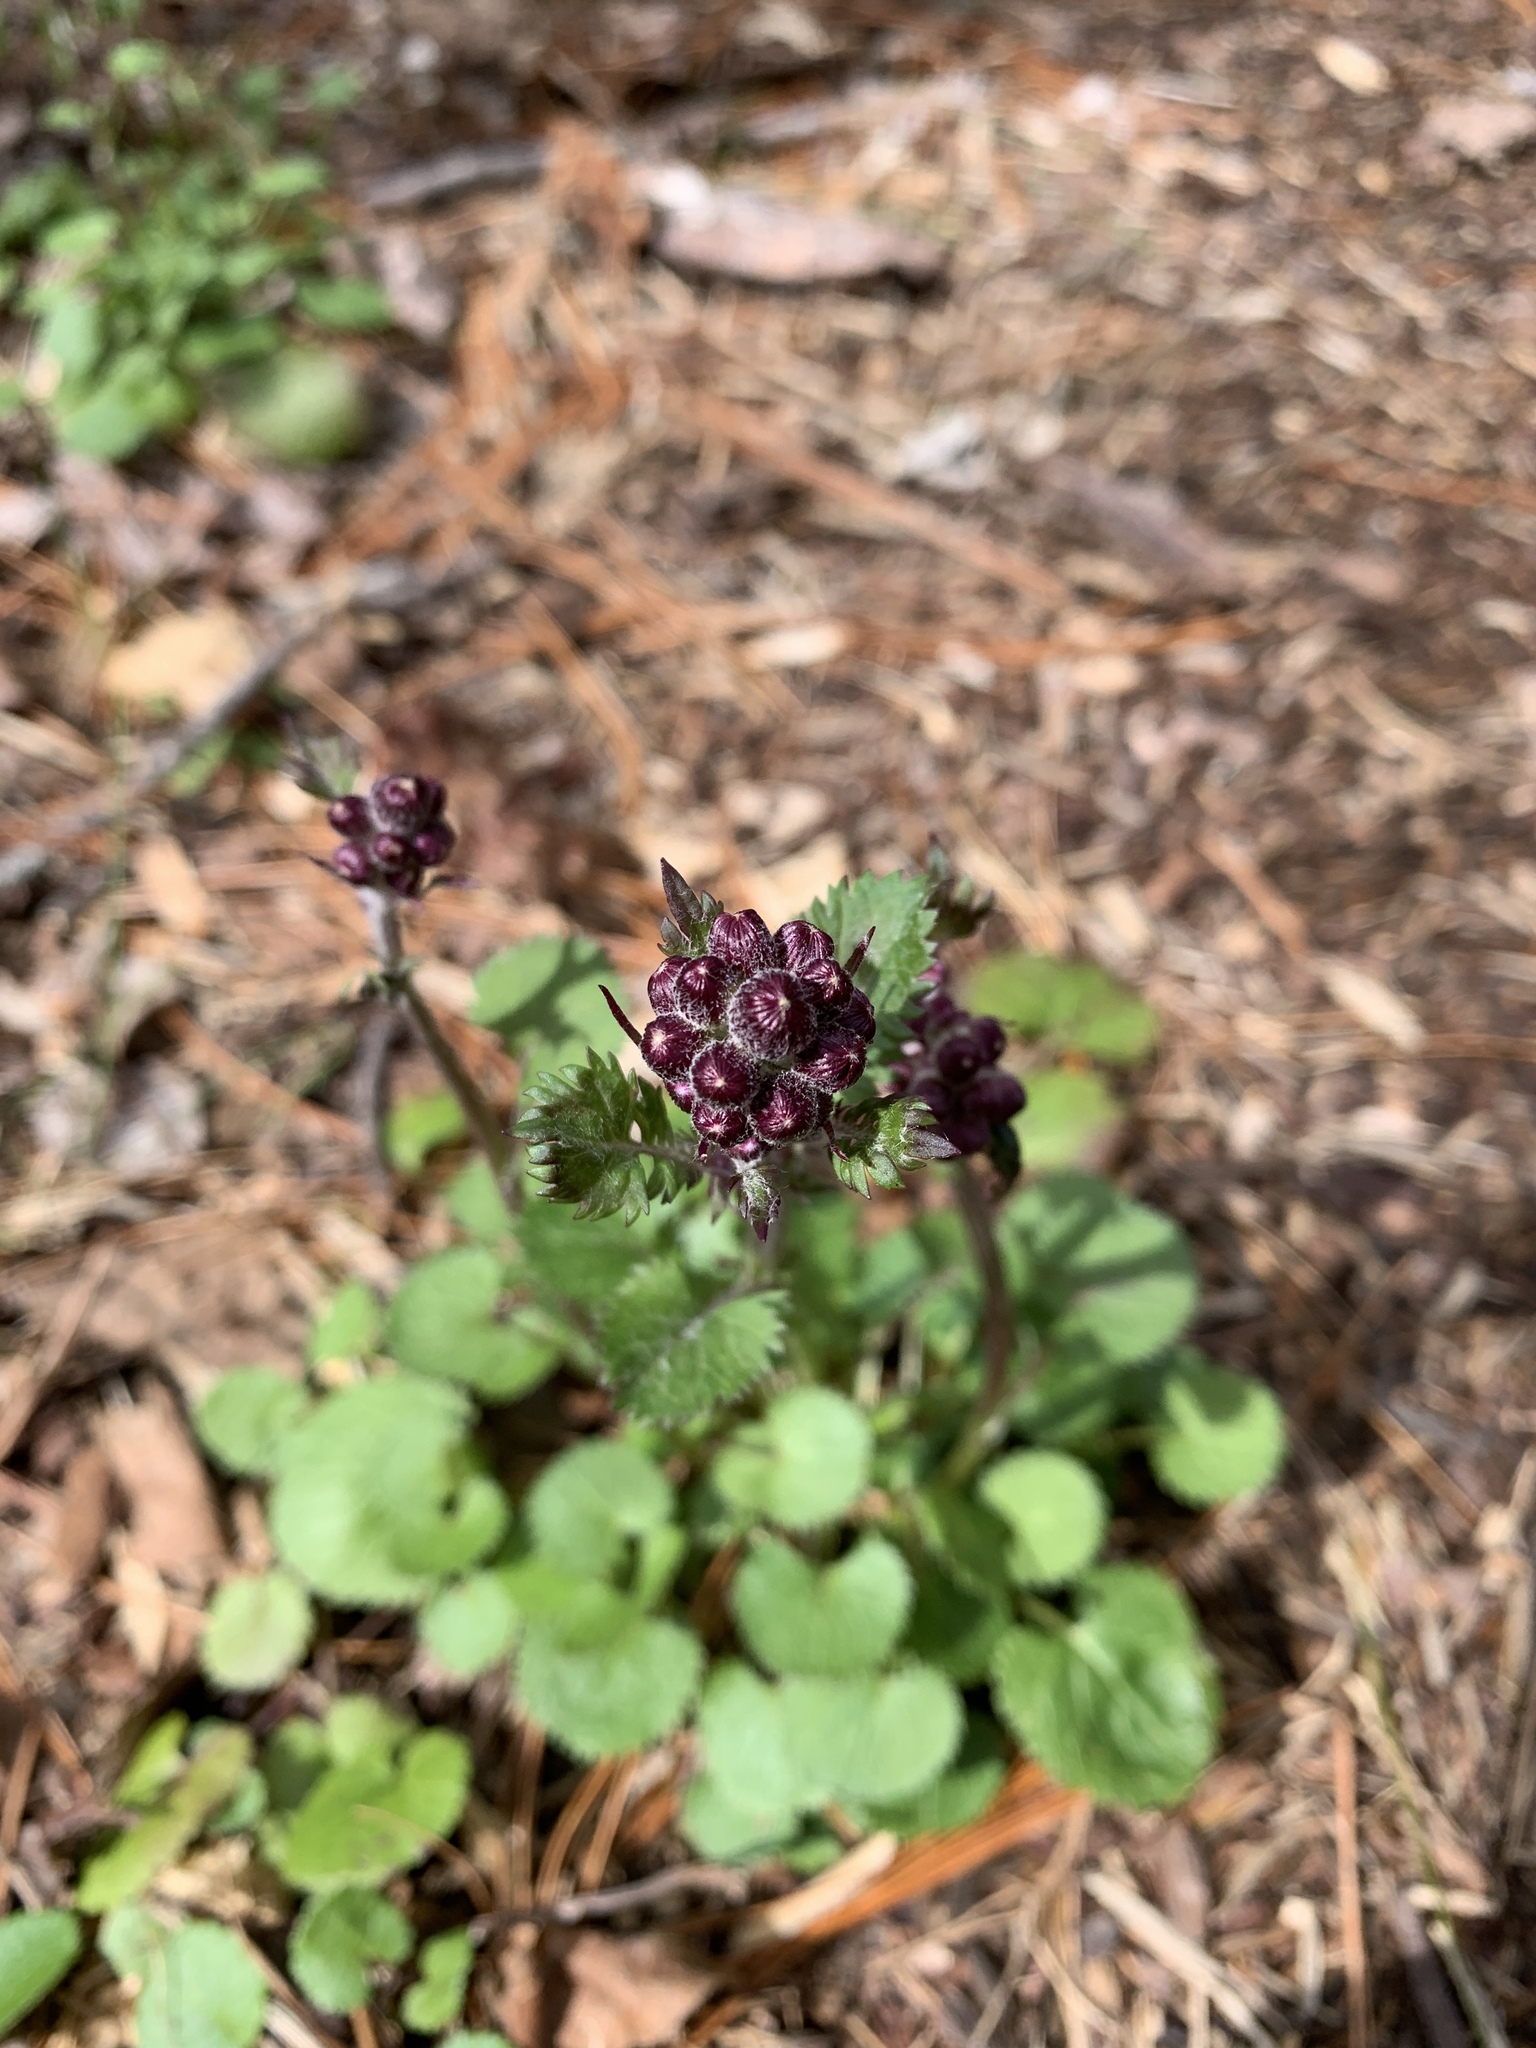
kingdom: Plantae
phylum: Tracheophyta
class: Magnoliopsida
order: Asterales
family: Asteraceae
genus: Packera
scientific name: Packera aurea
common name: Golden groundsel
